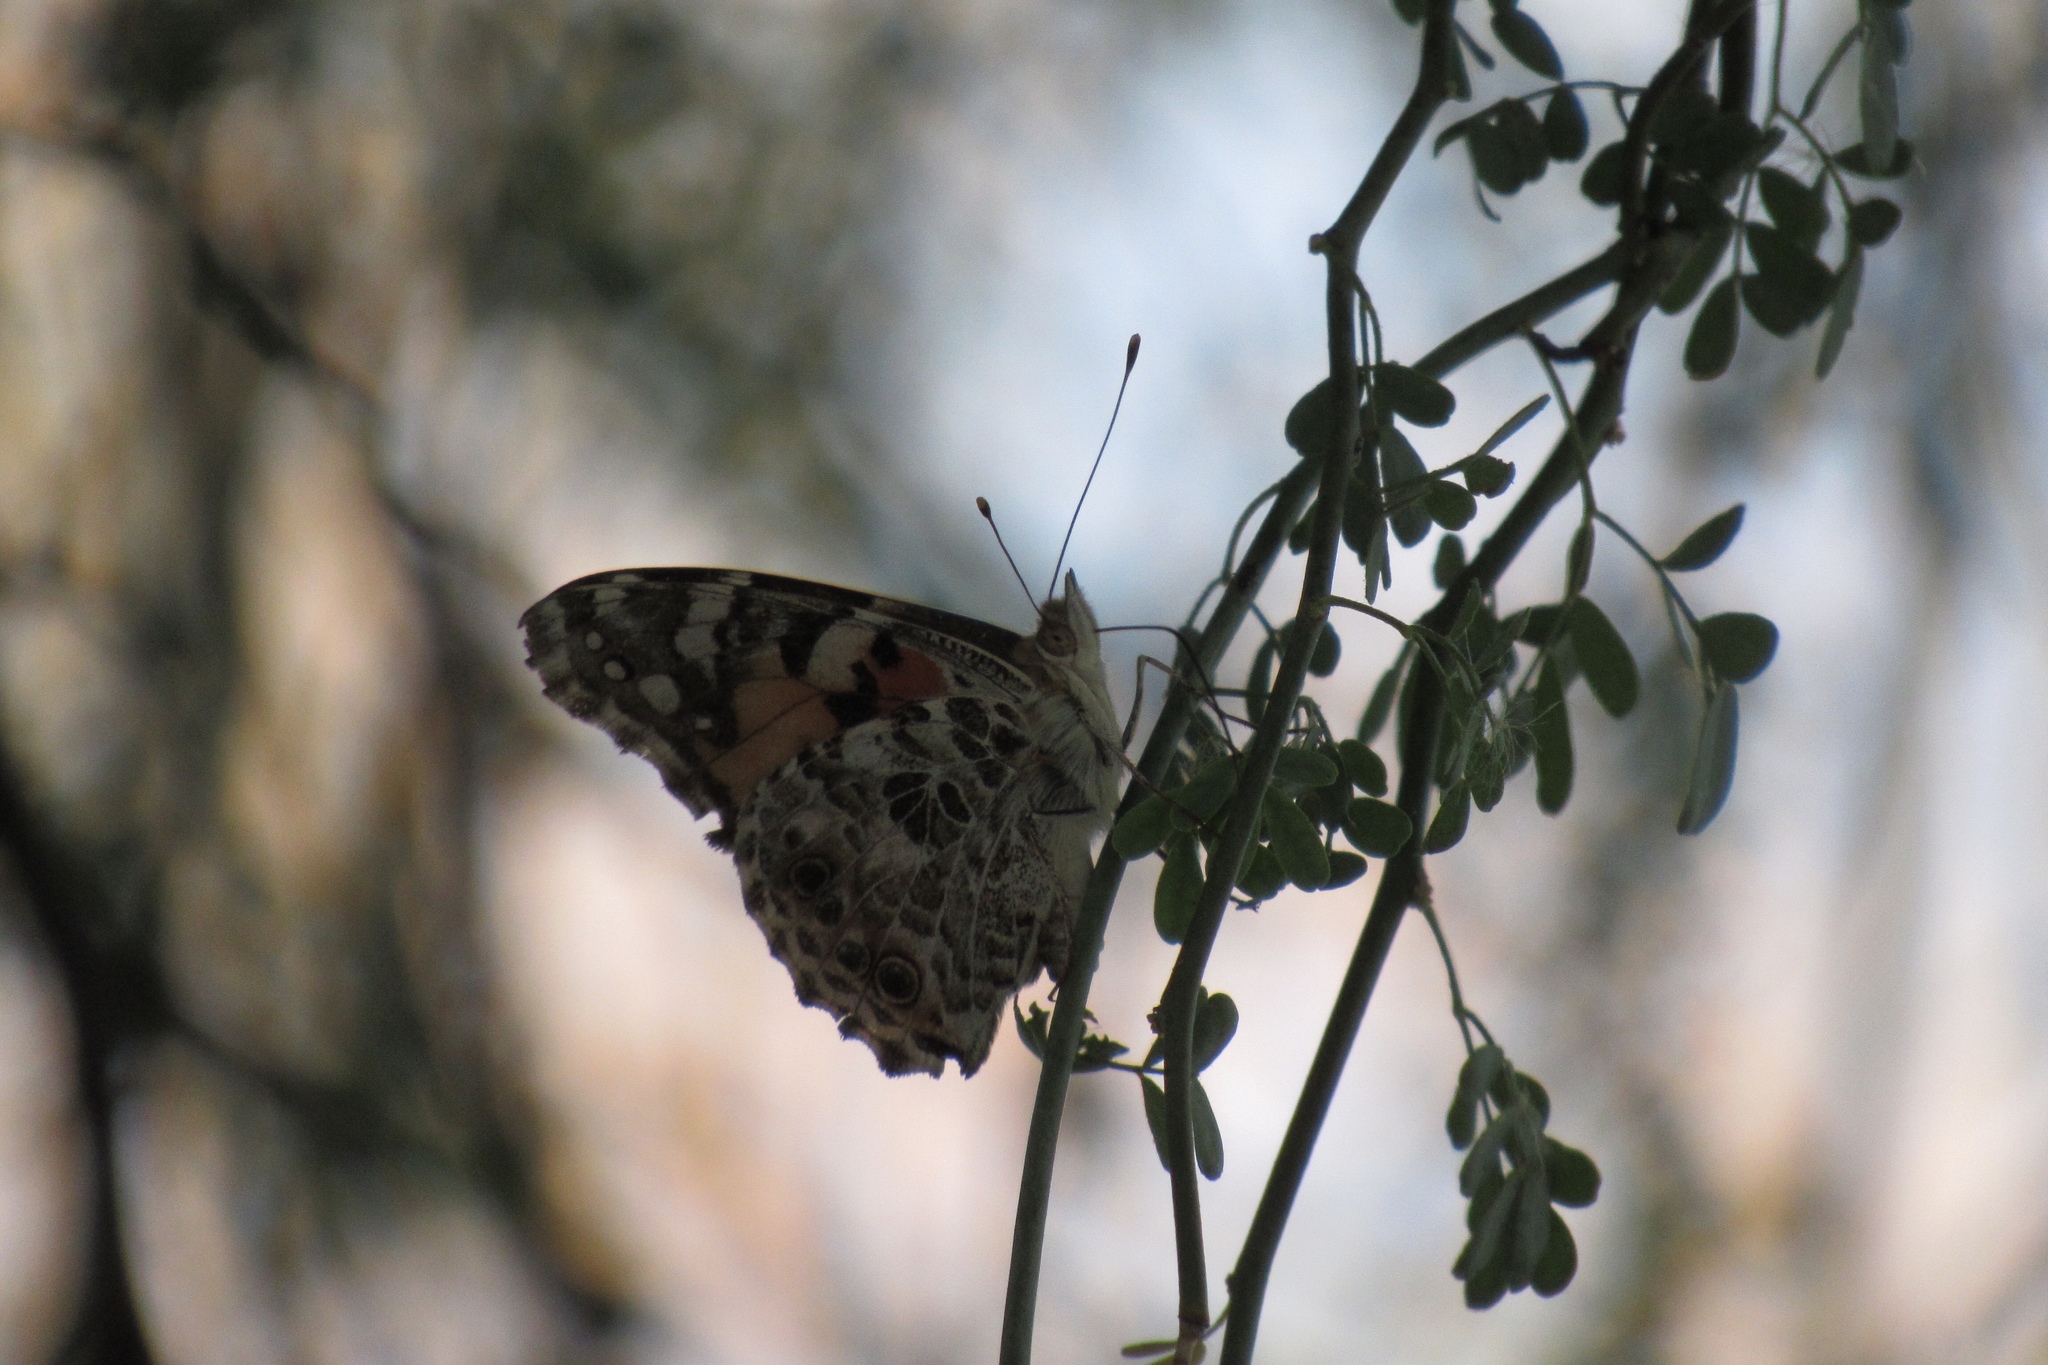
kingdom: Animalia
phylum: Arthropoda
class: Insecta
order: Lepidoptera
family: Nymphalidae
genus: Vanessa
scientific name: Vanessa cardui
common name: Painted lady
